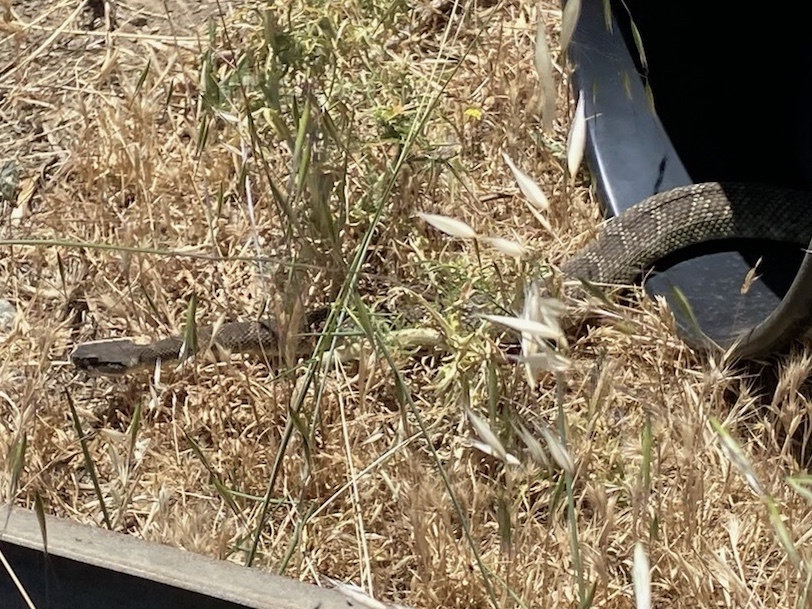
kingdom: Animalia
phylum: Chordata
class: Squamata
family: Viperidae
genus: Crotalus
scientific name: Crotalus oreganus
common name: Abyssus
